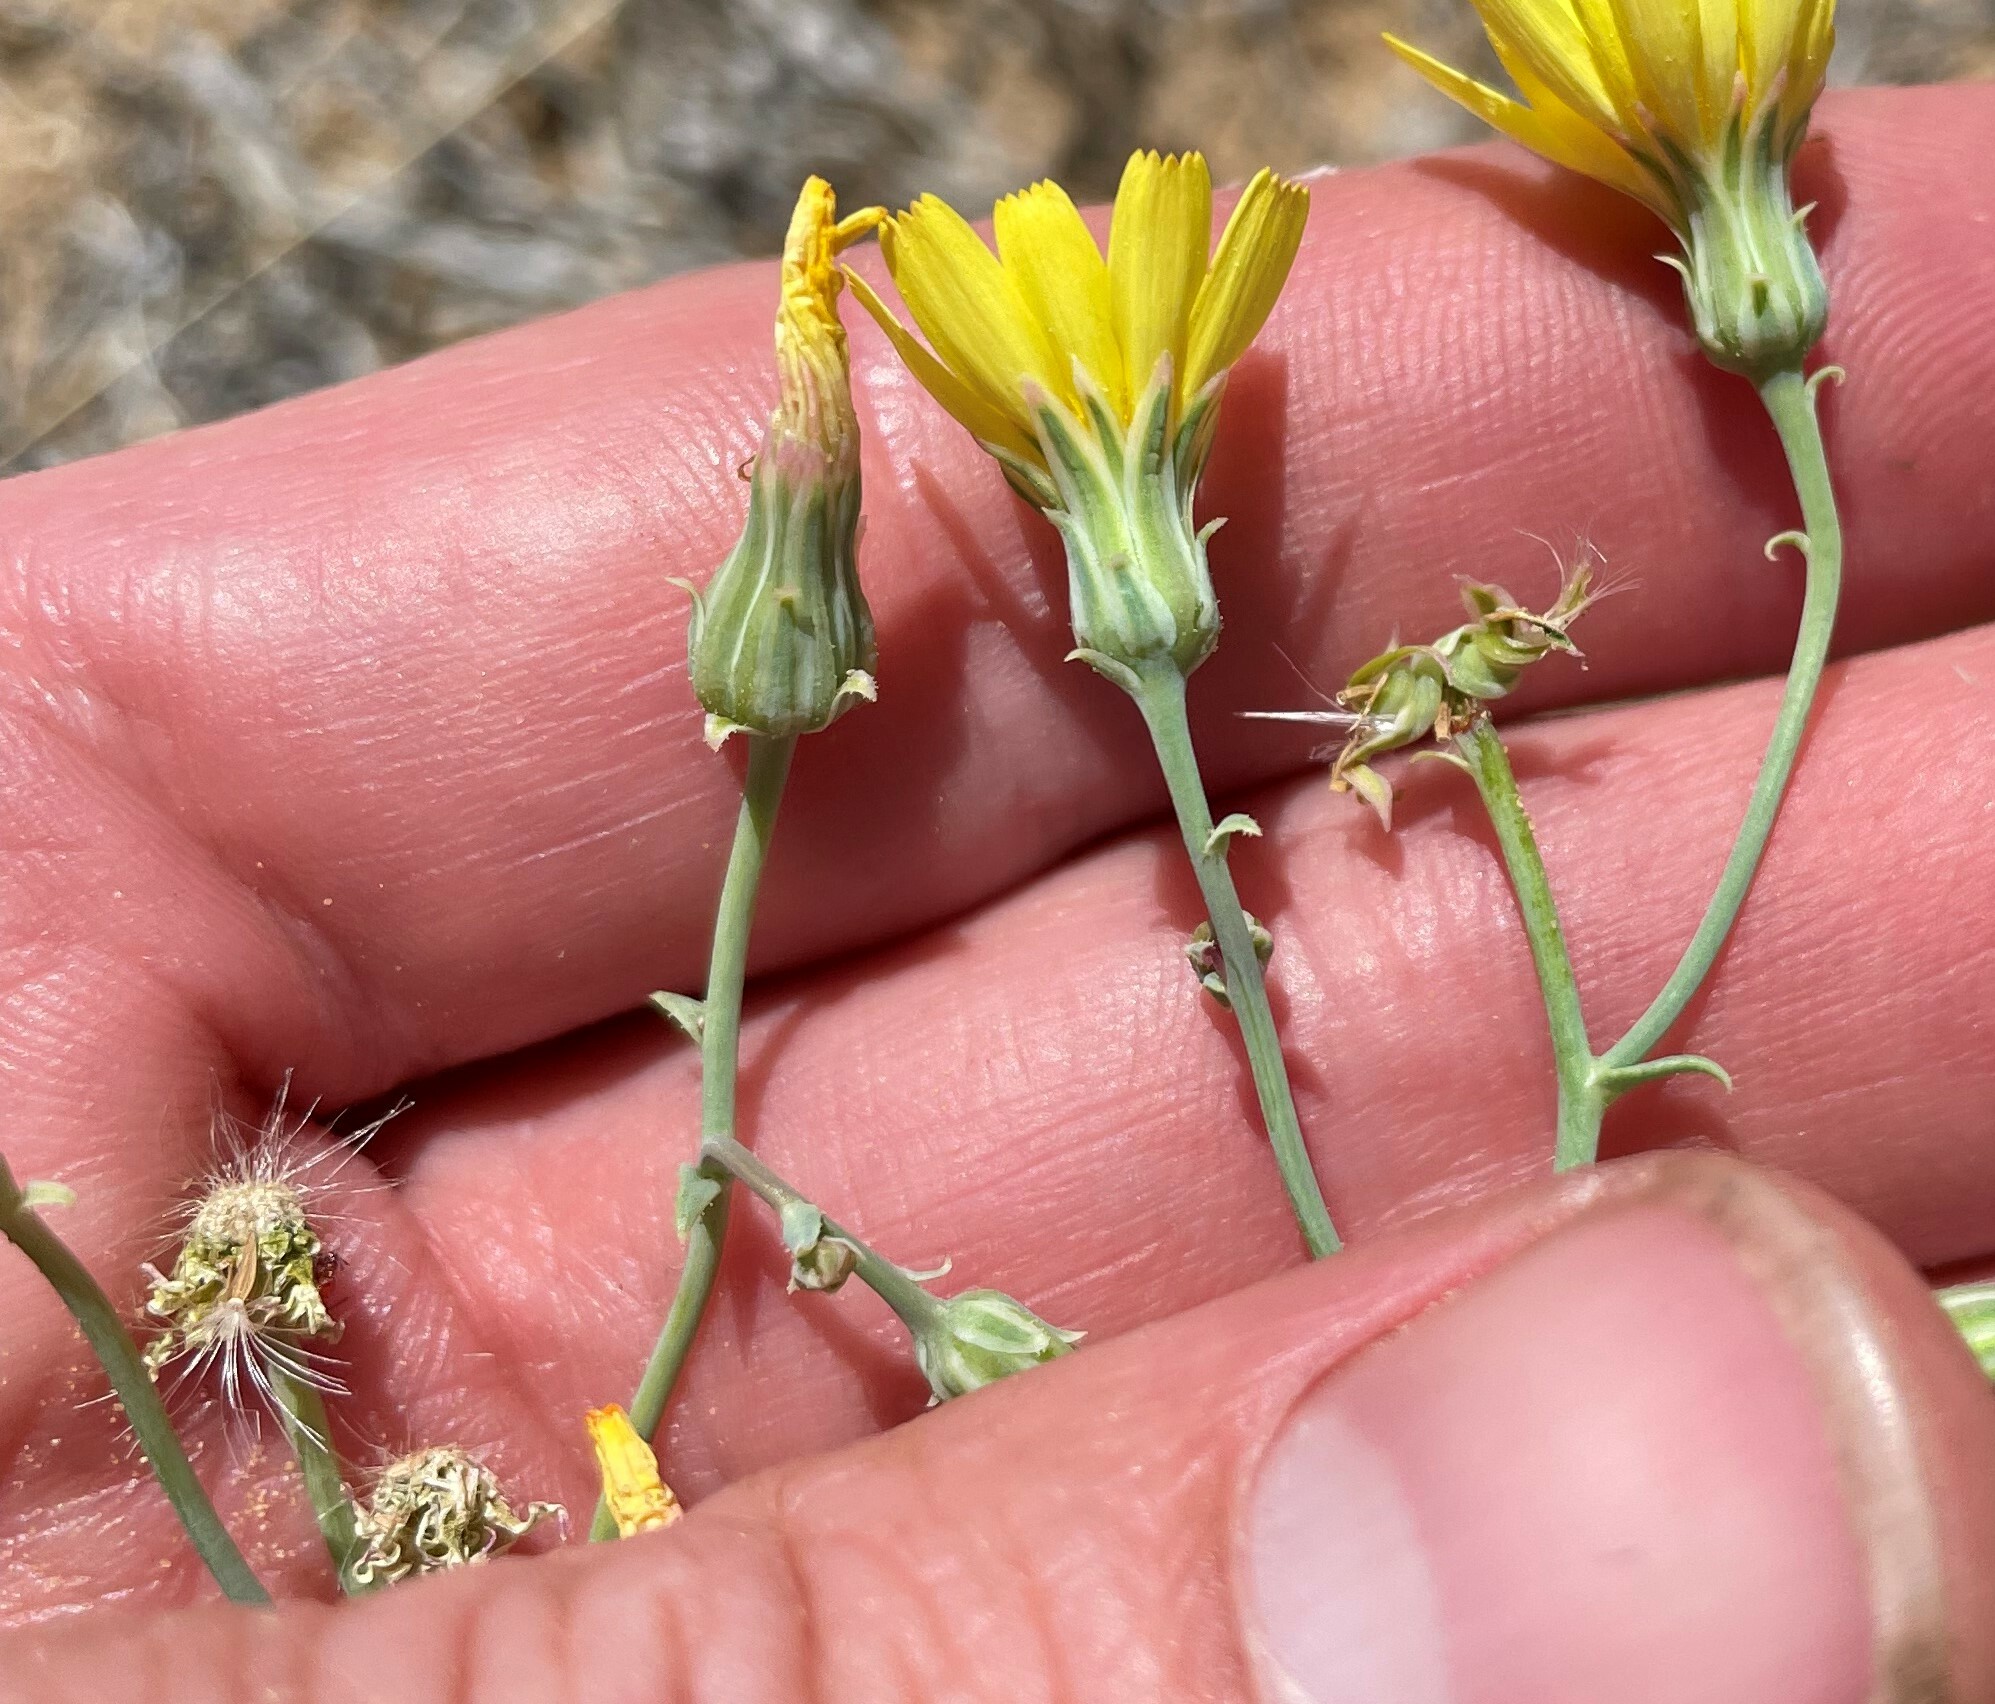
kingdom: Plantae
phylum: Tracheophyta
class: Magnoliopsida
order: Asterales
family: Asteraceae
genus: Malacothrix
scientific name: Malacothrix sonchoides
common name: Sow-thistle desert-dandelion
